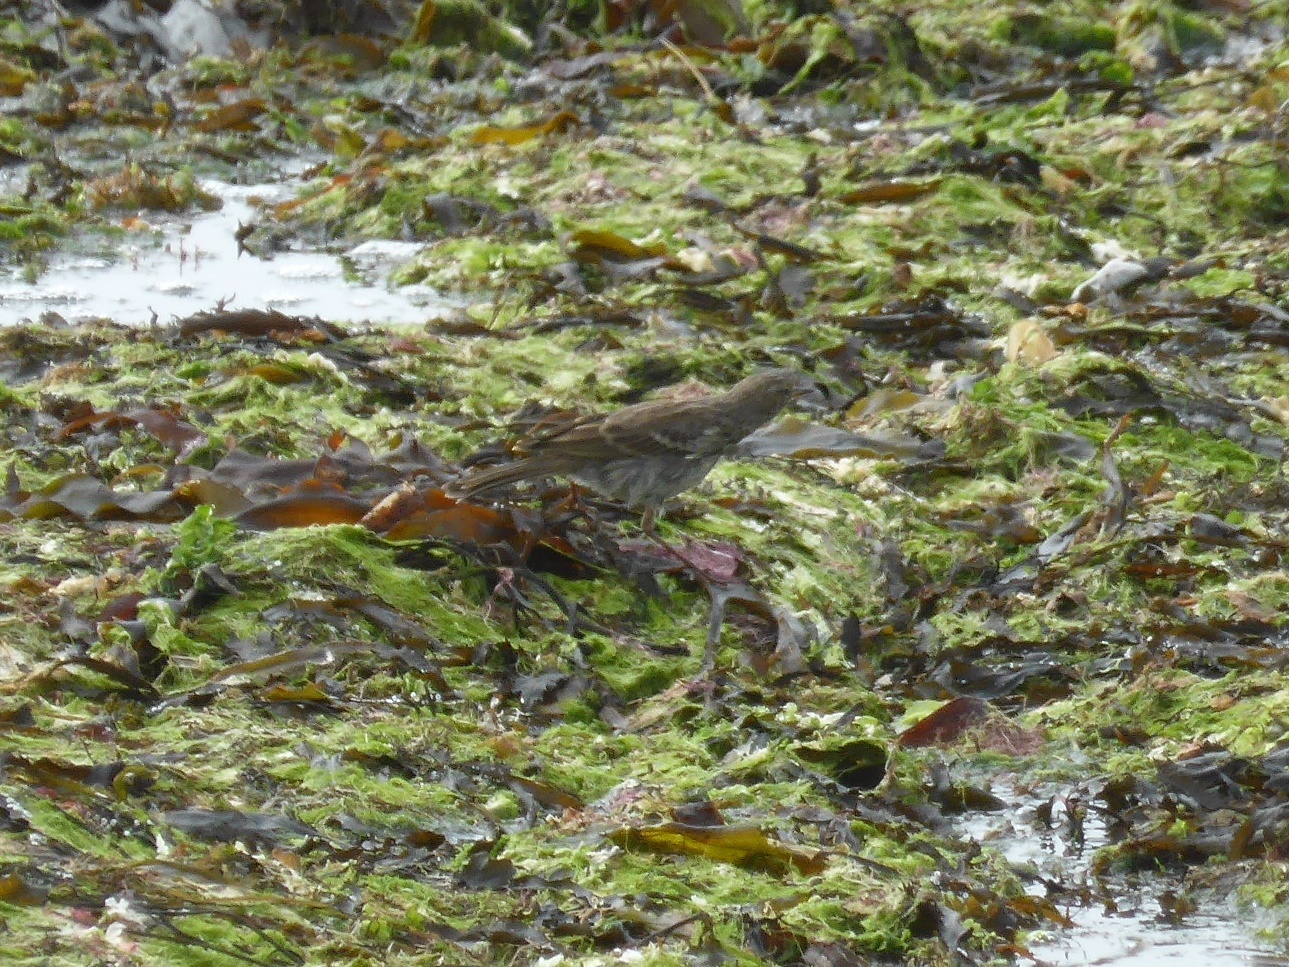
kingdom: Animalia
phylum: Chordata
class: Aves
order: Passeriformes
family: Motacillidae
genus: Anthus
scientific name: Anthus petrosus
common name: Eurasian rock pipit
